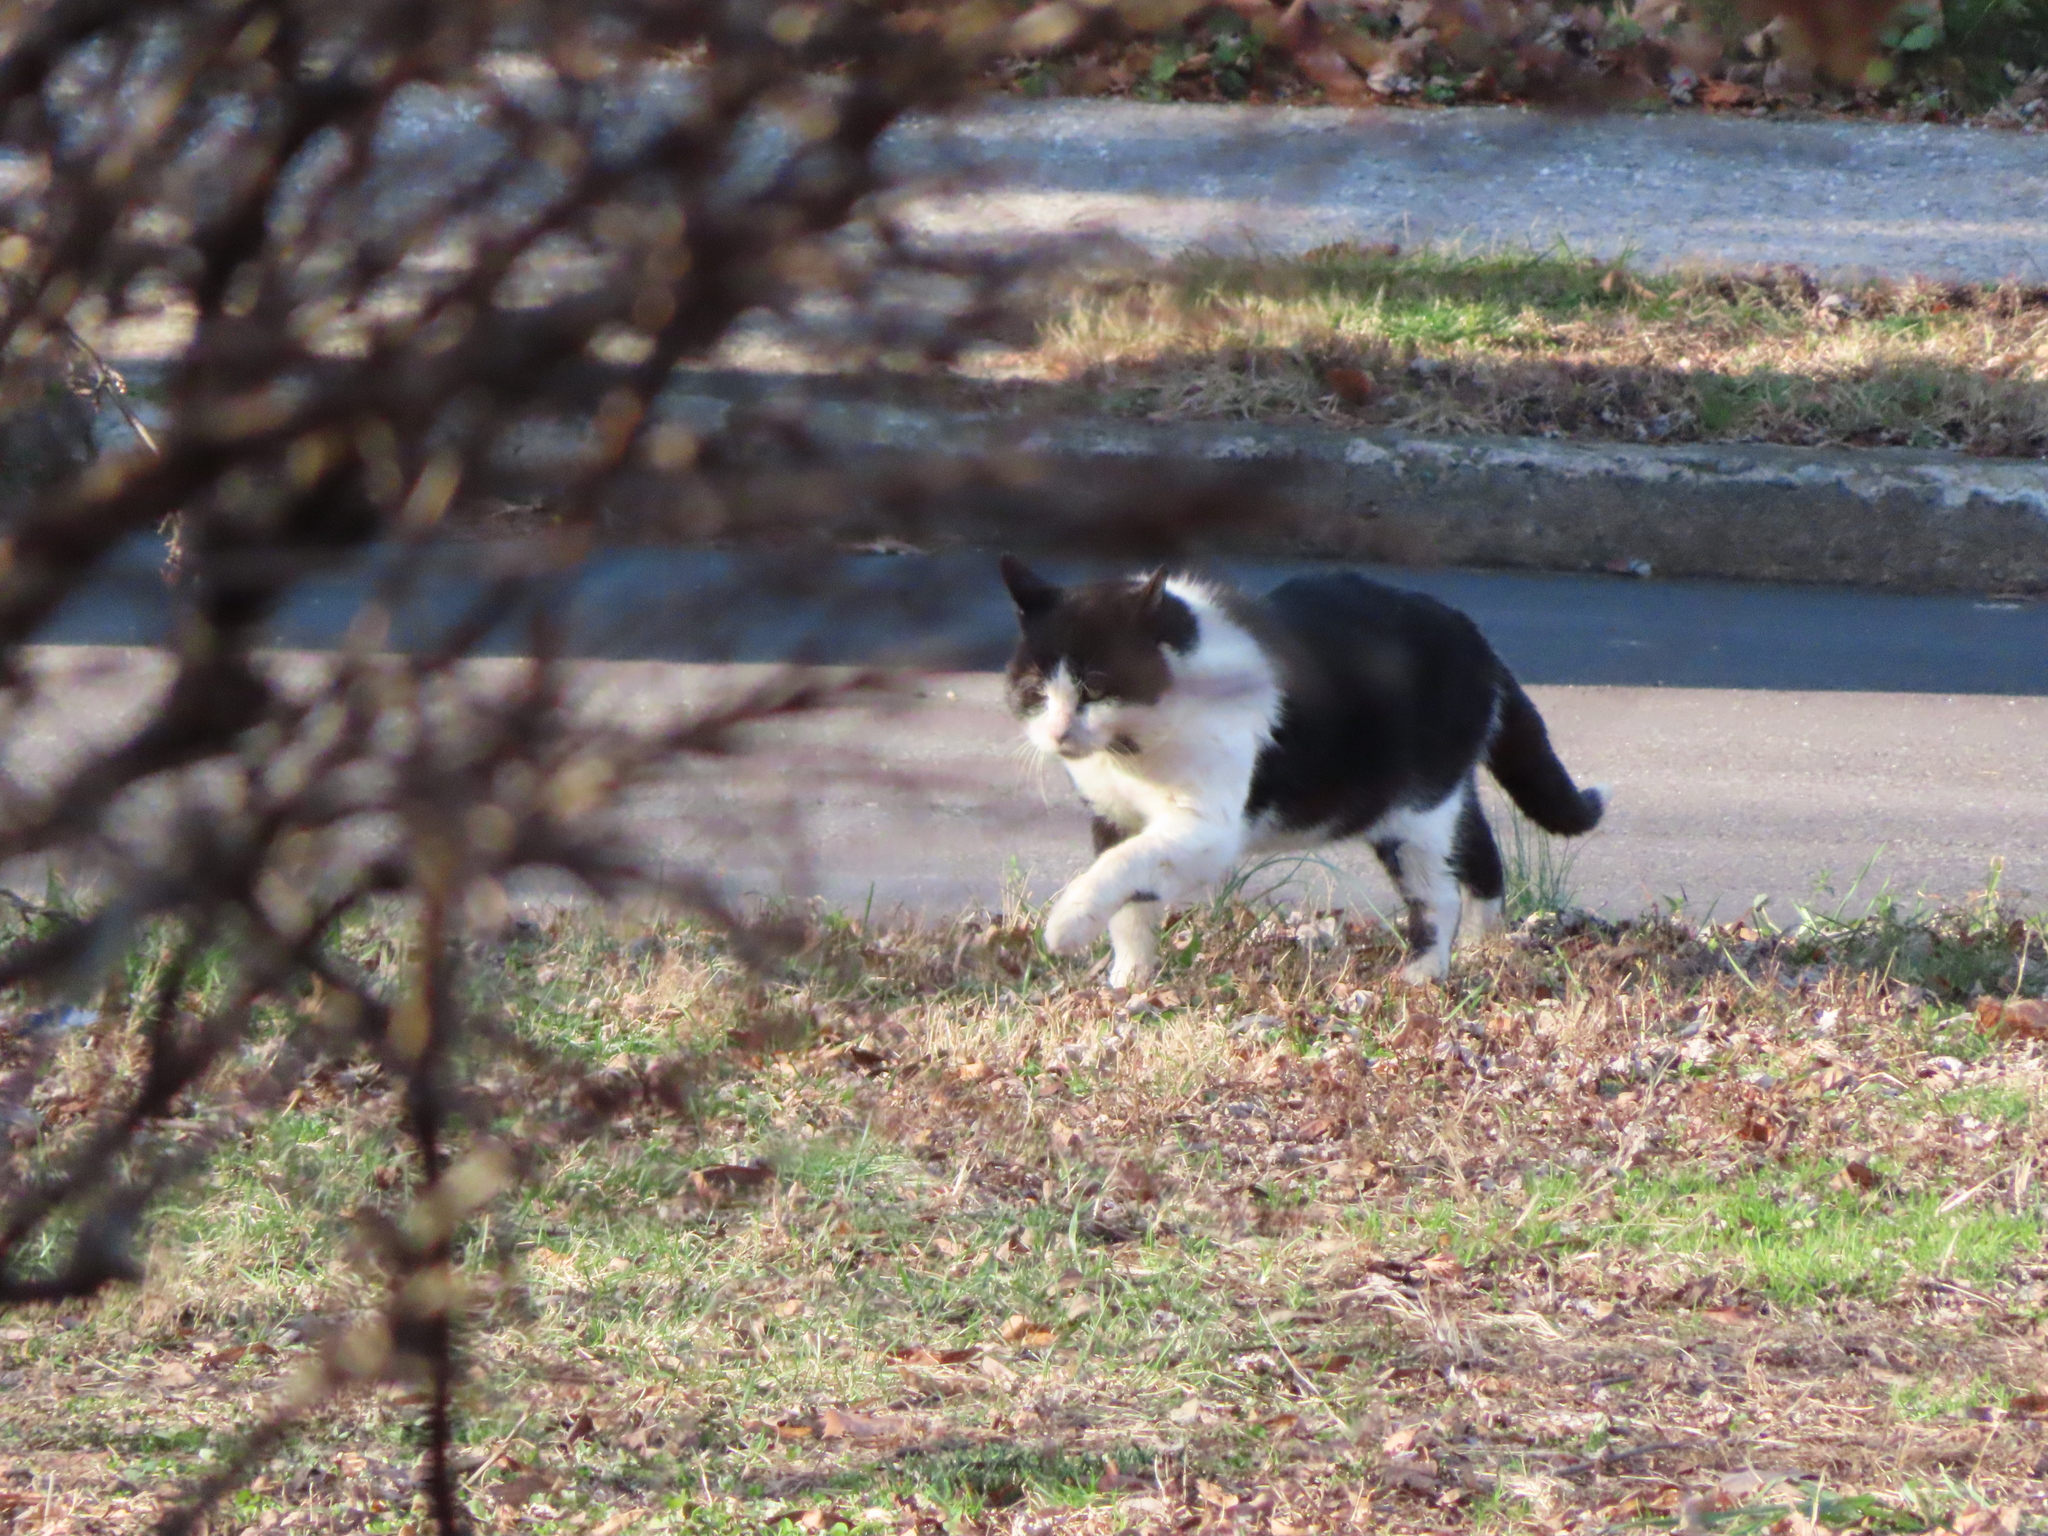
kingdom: Animalia
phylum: Chordata
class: Mammalia
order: Carnivora
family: Felidae
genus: Felis
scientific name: Felis catus
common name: Domestic cat
